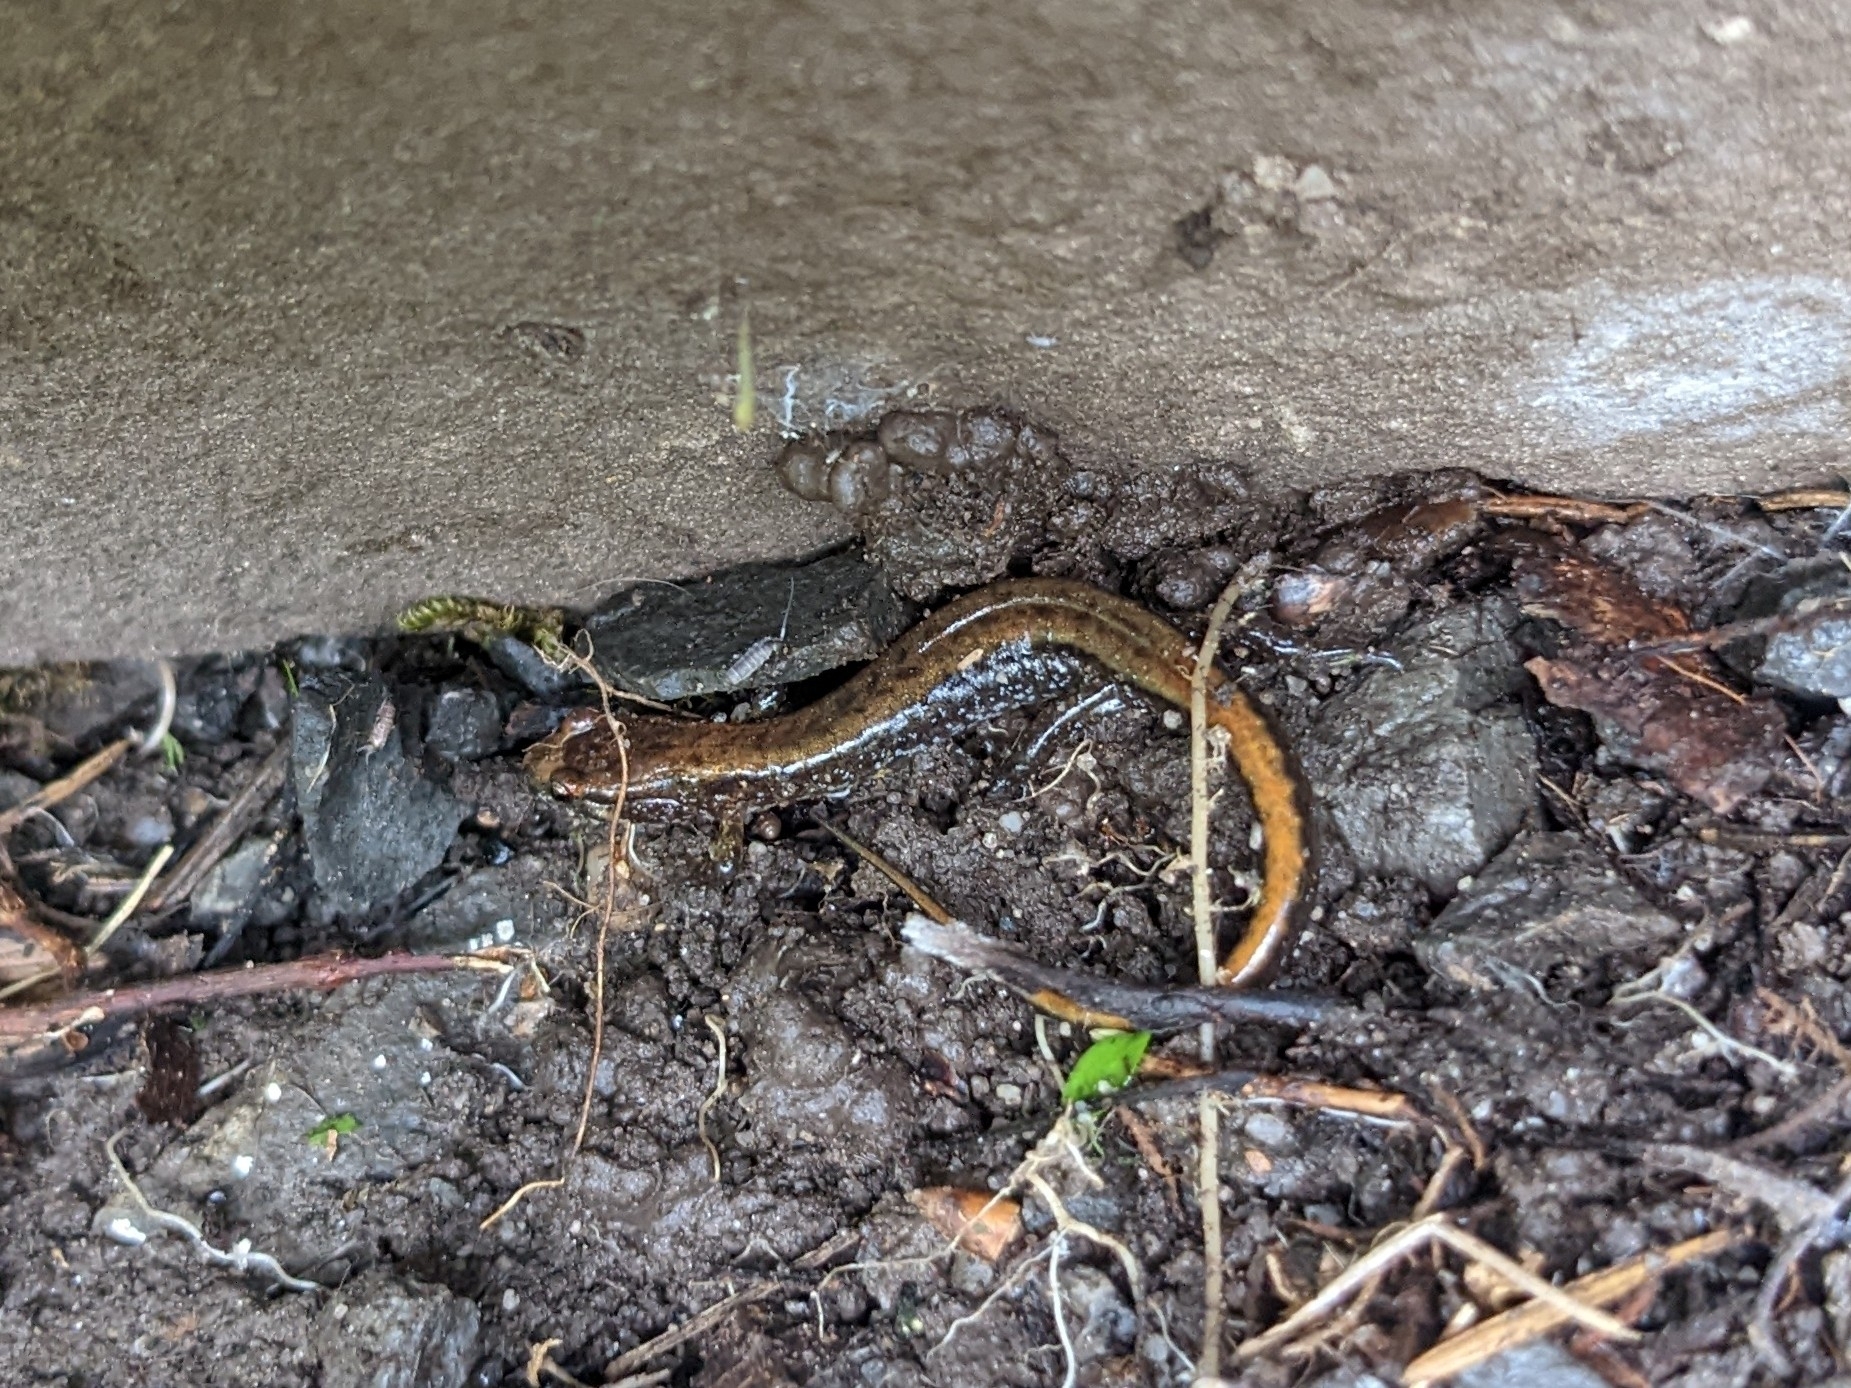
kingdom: Animalia
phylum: Chordata
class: Amphibia
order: Caudata
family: Plethodontidae
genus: Desmognathus
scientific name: Desmognathus ochrophaeus
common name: Allegheny mountain dusky salamander
